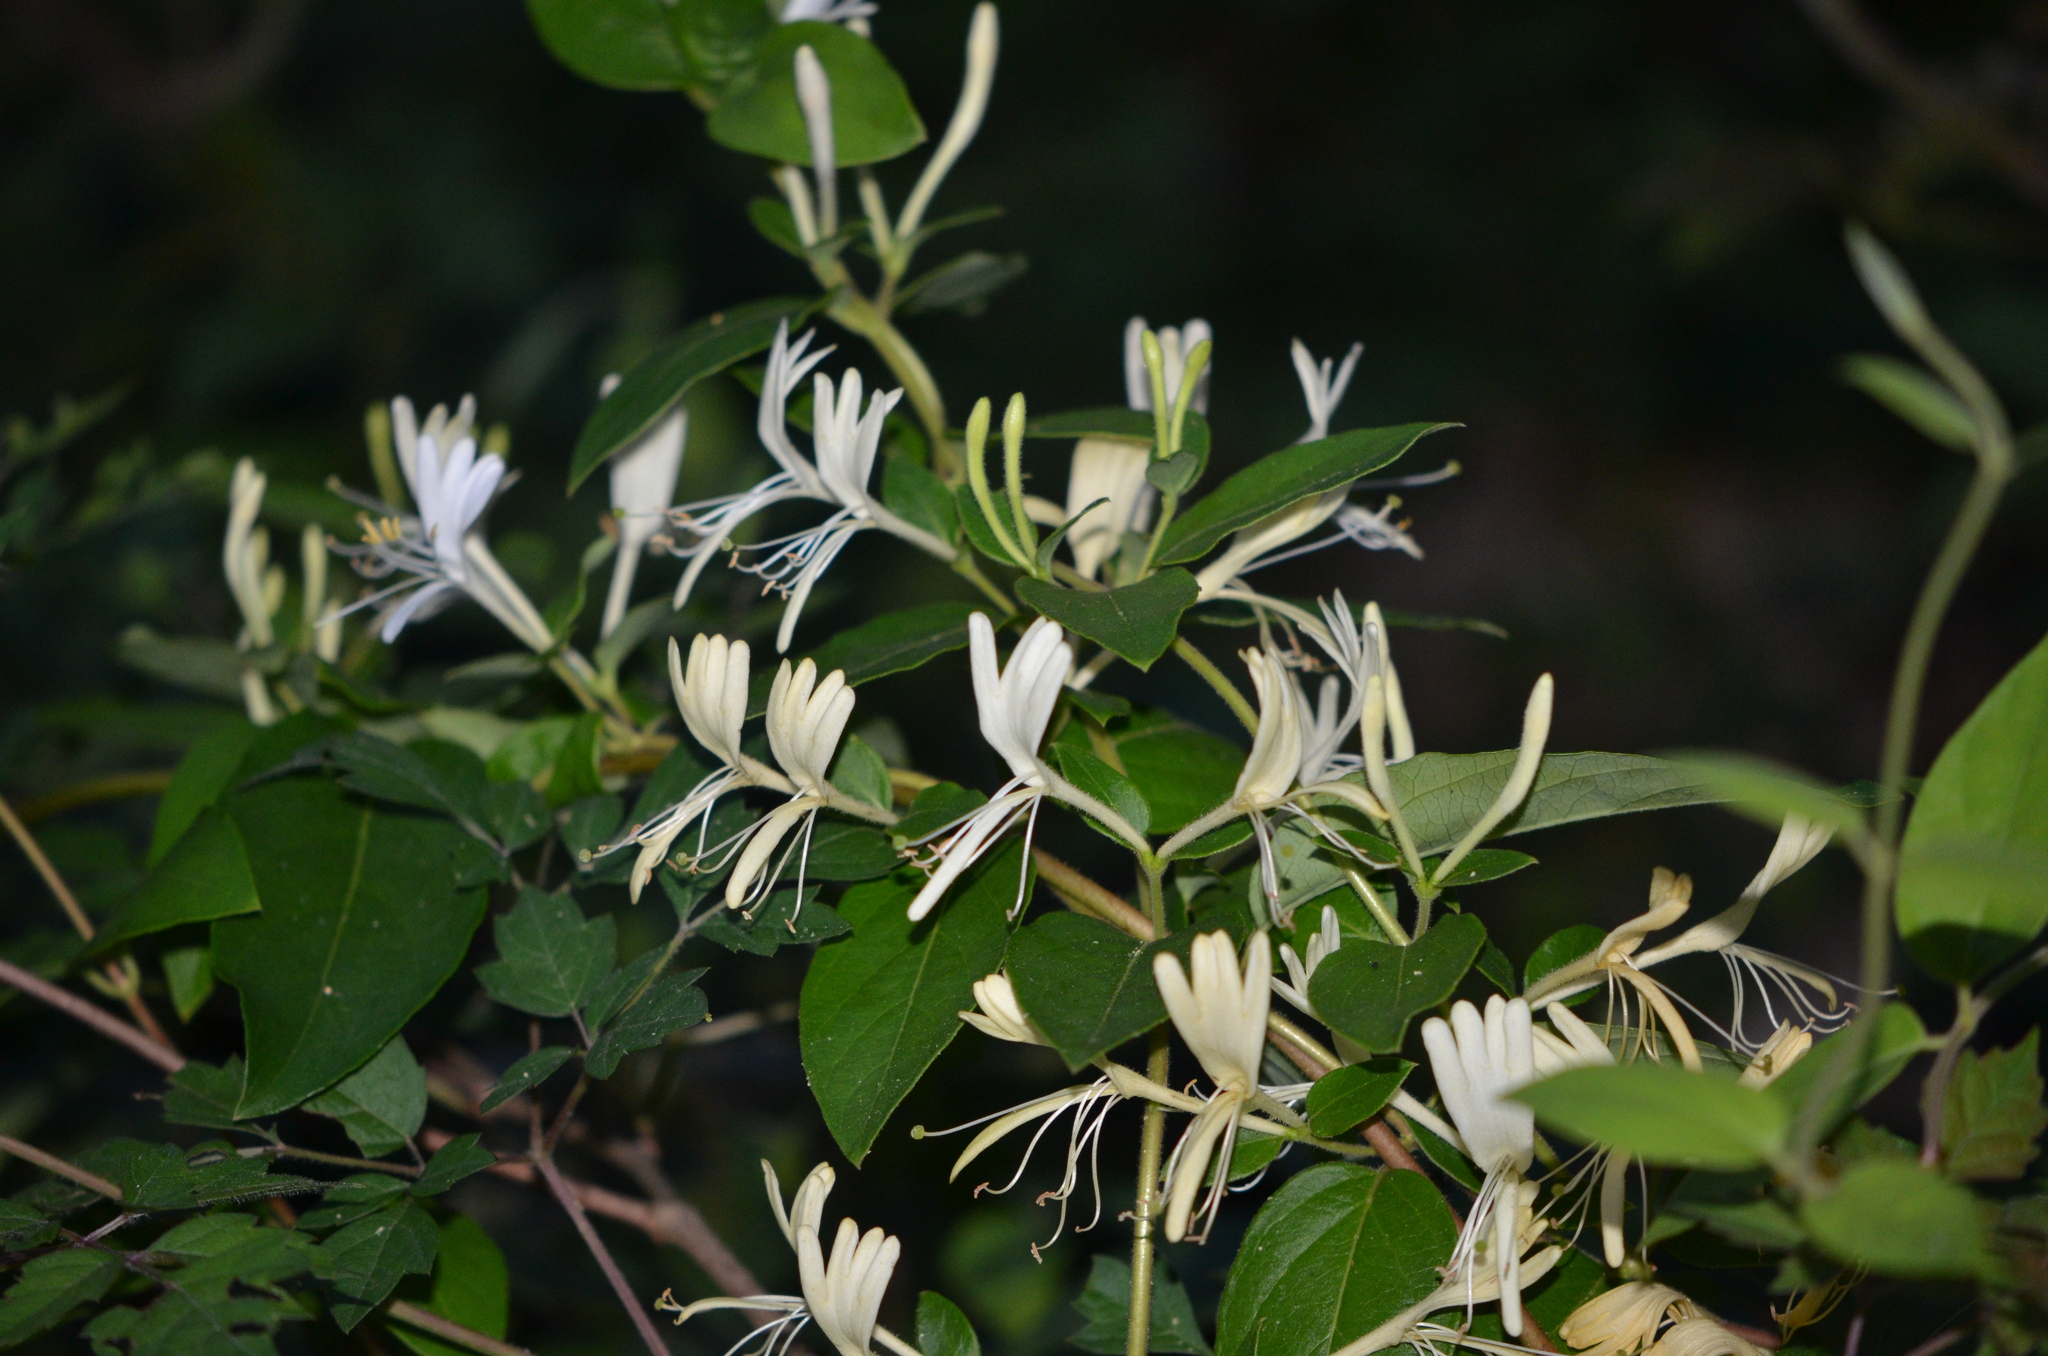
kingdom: Plantae
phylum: Tracheophyta
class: Magnoliopsida
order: Dipsacales
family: Caprifoliaceae
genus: Lonicera
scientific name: Lonicera japonica
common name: Japanese honeysuckle
